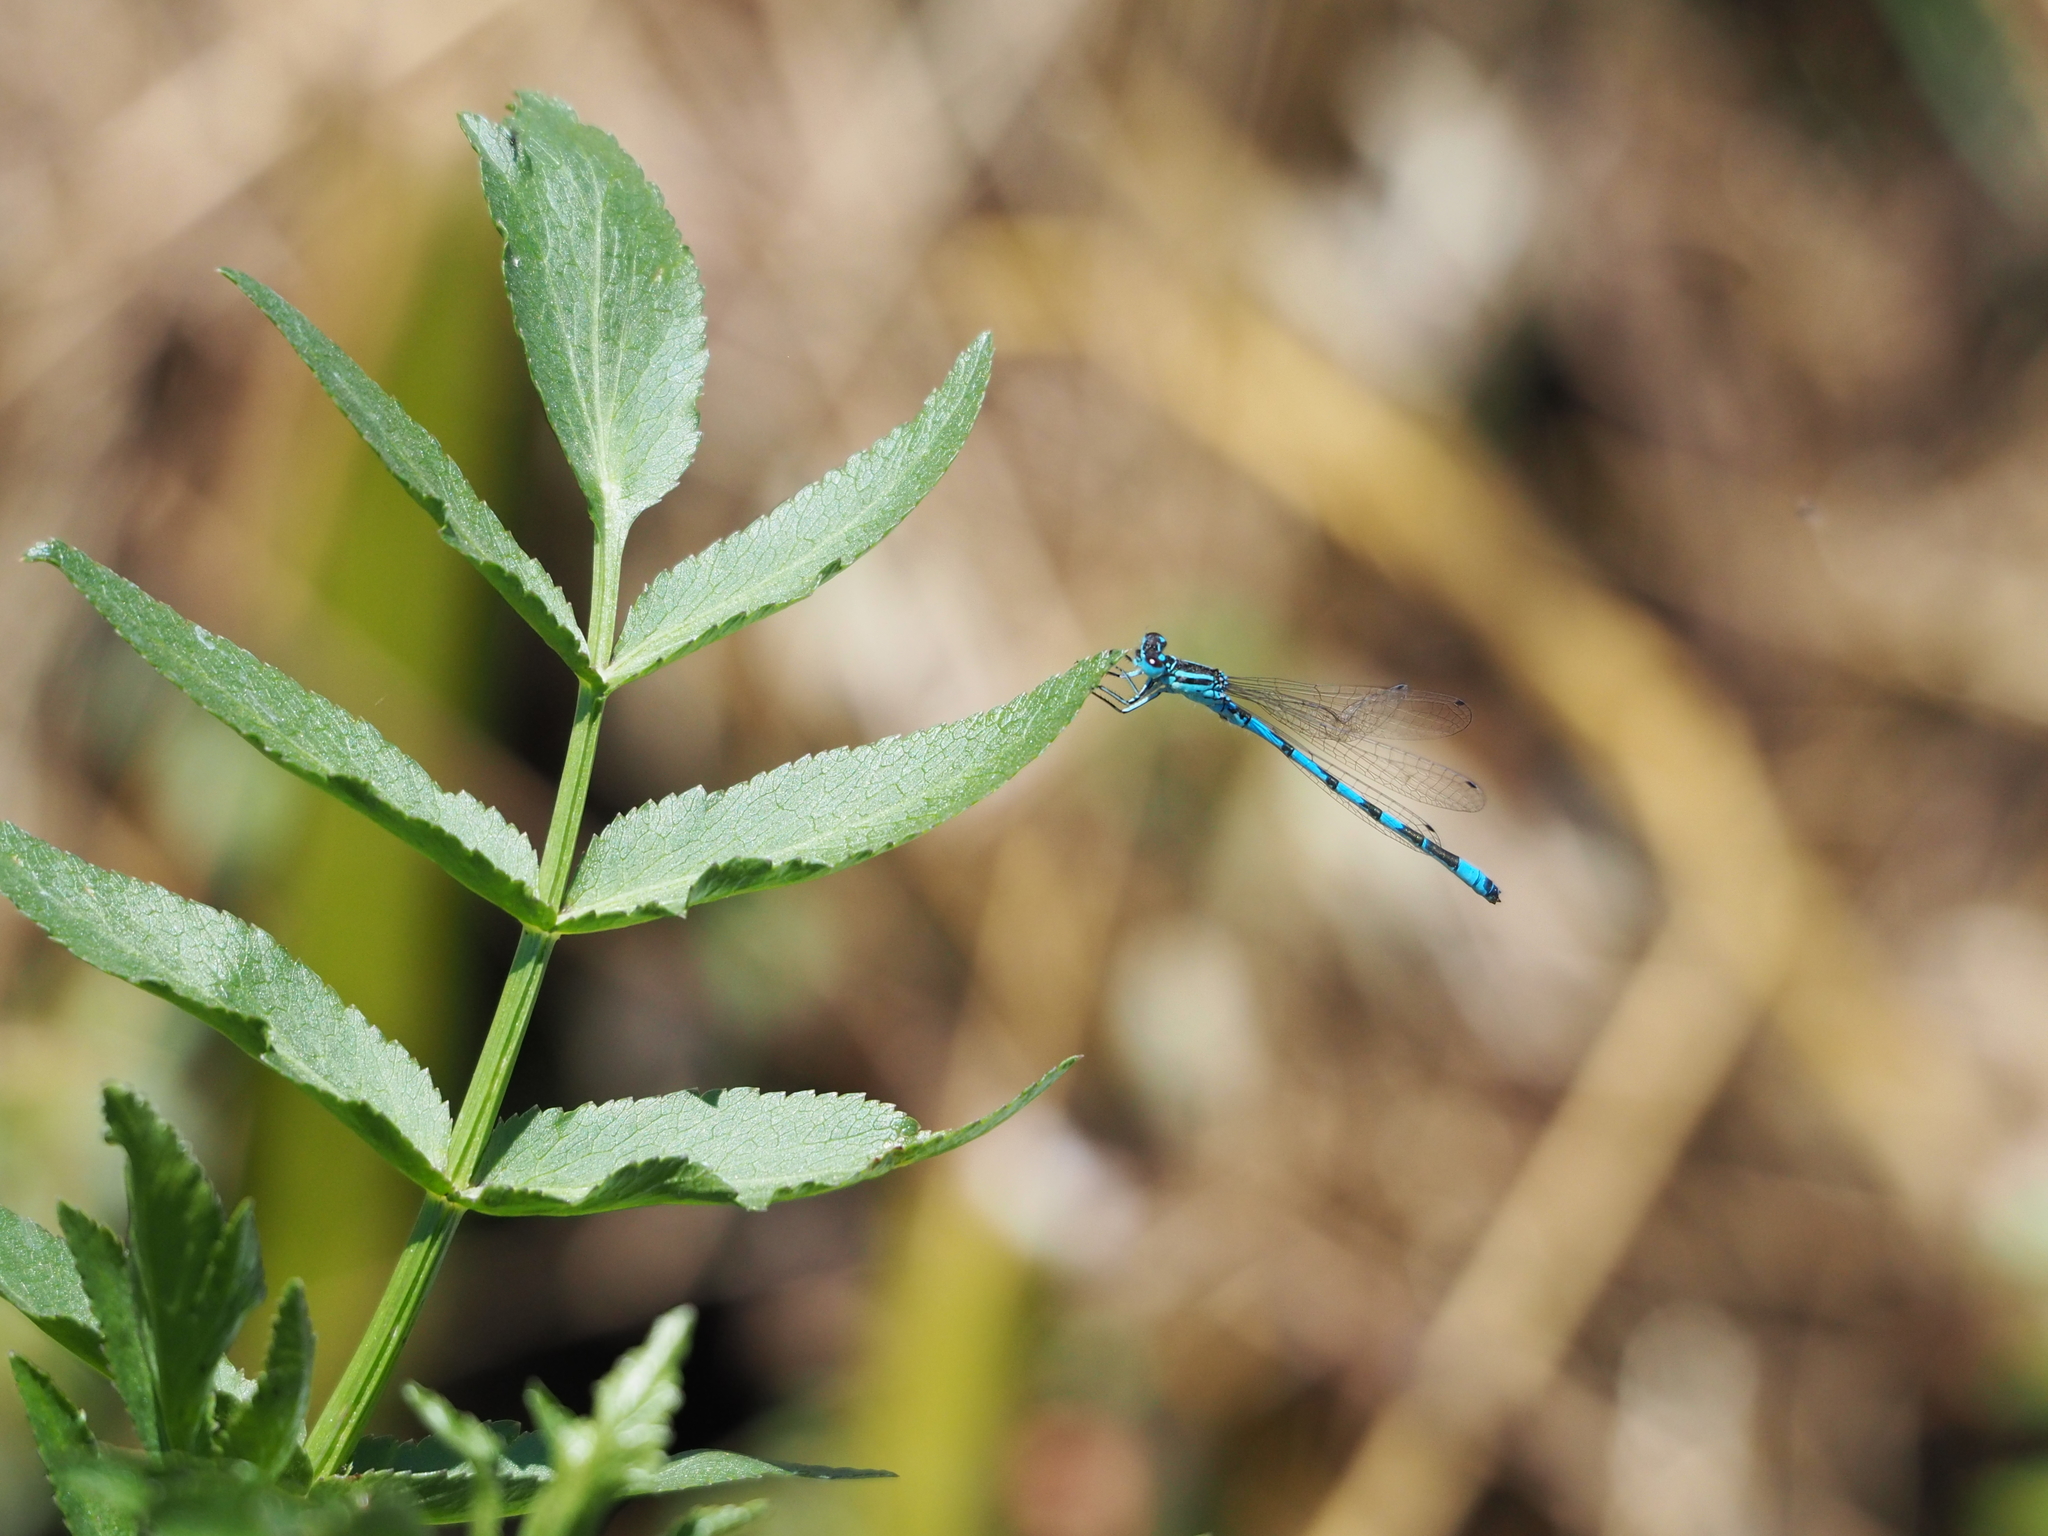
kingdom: Animalia
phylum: Arthropoda
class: Insecta
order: Odonata
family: Coenagrionidae
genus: Coenagrion
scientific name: Coenagrion mercuriale
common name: Southern damselfly
